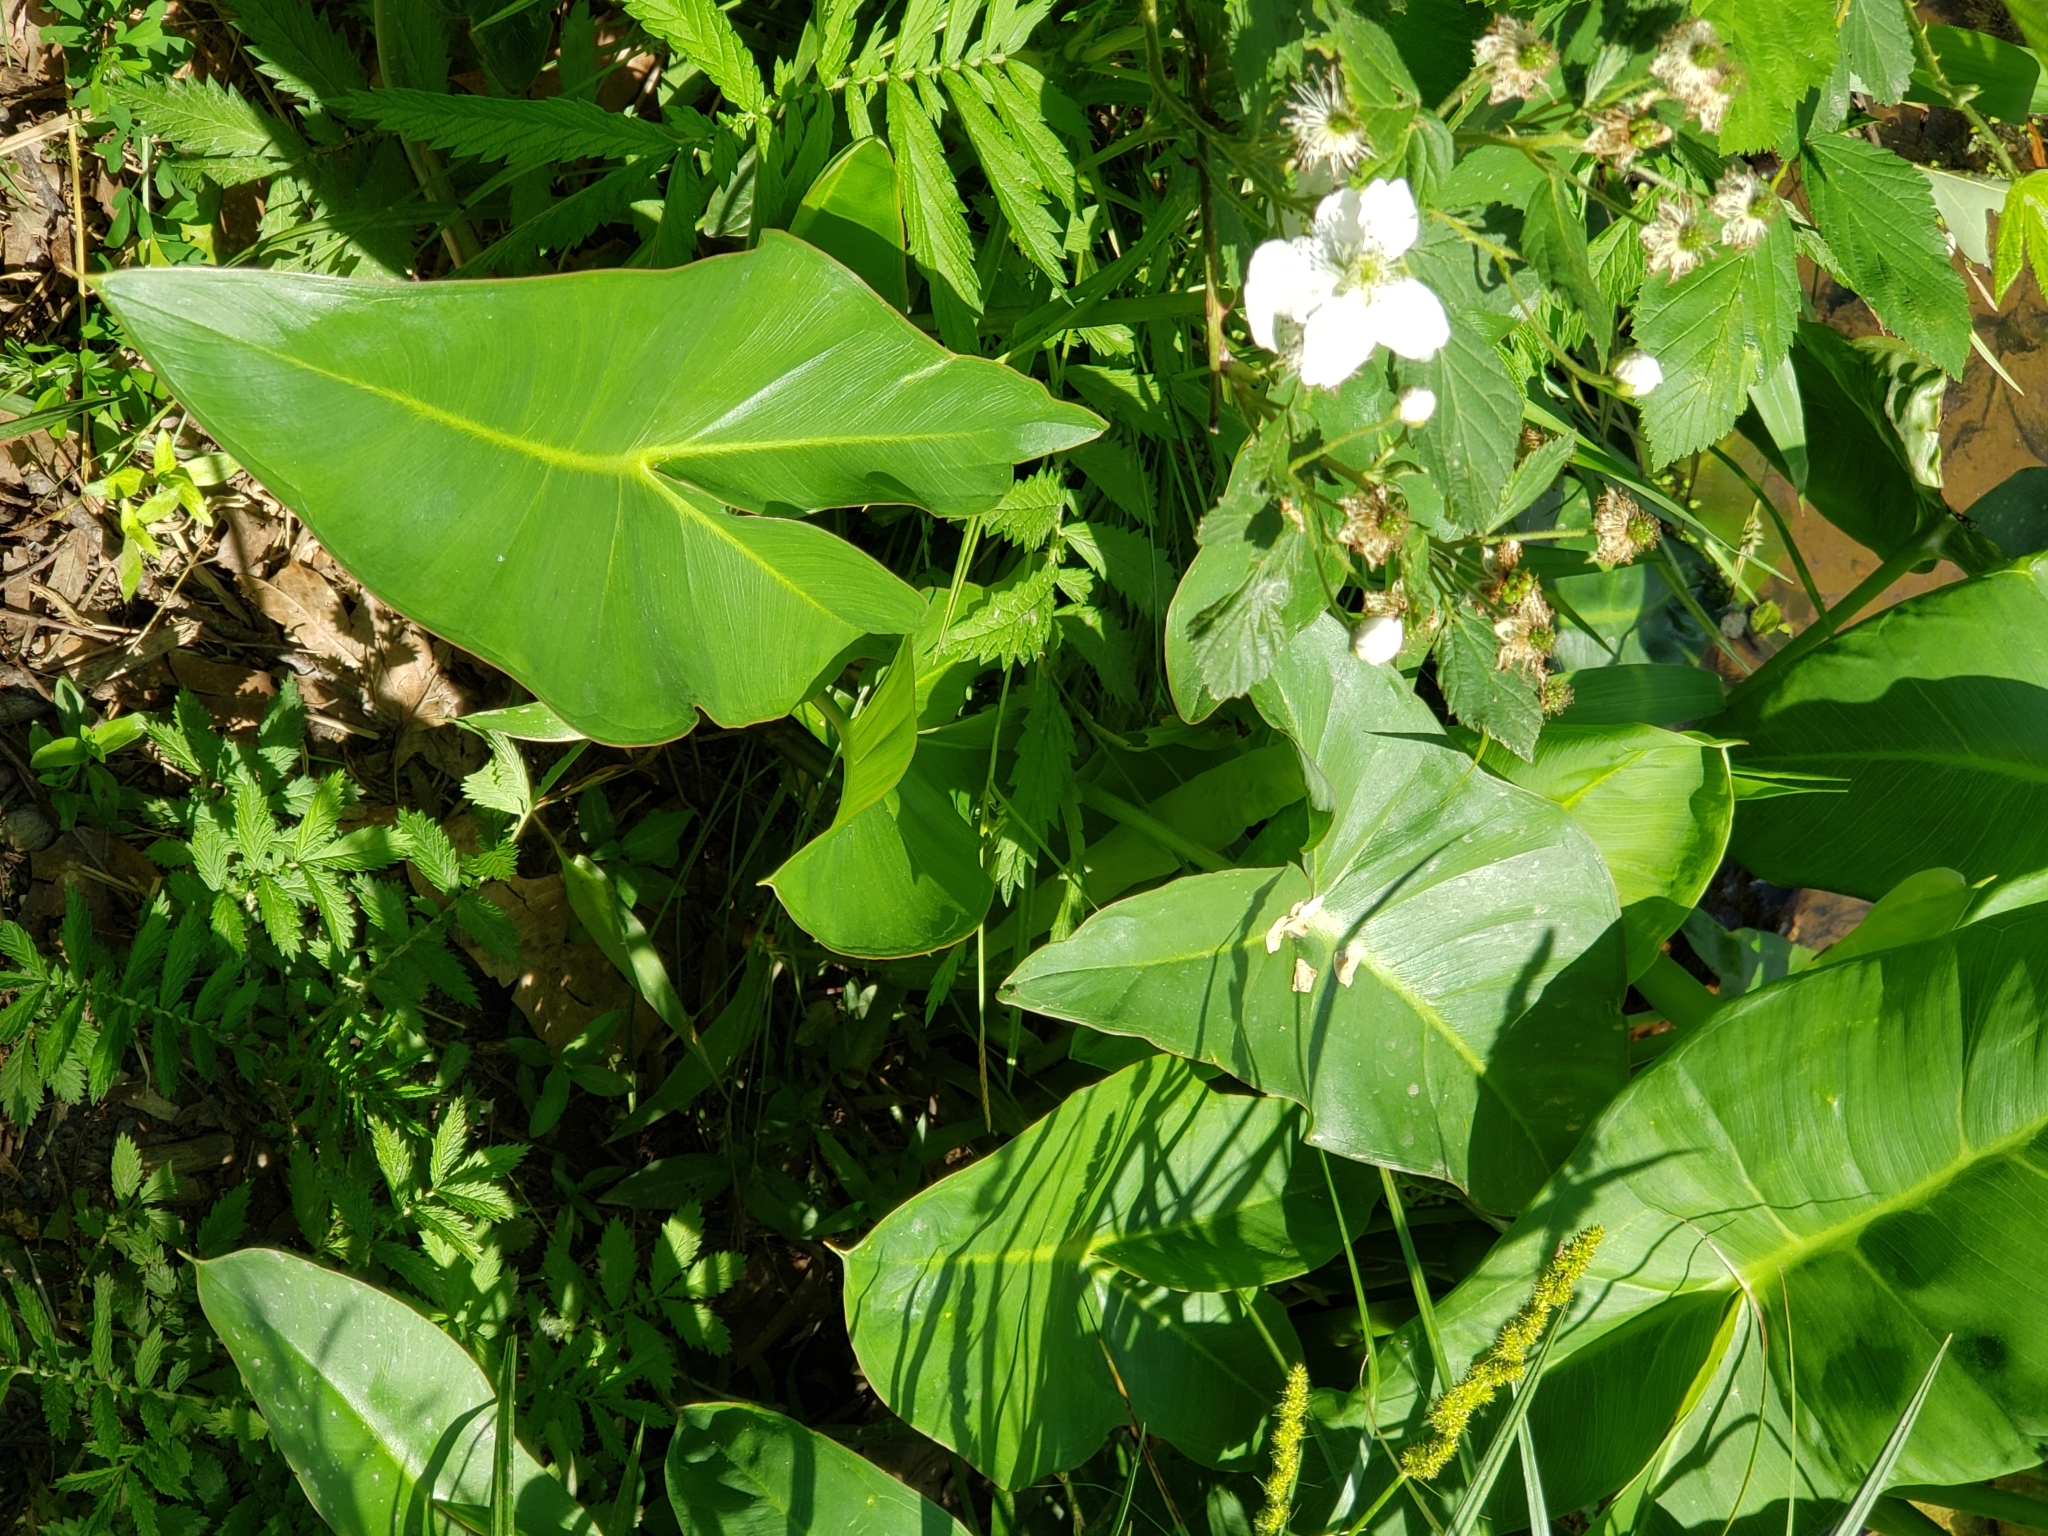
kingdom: Plantae
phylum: Tracheophyta
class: Liliopsida
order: Alismatales
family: Araceae
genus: Peltandra
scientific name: Peltandra virginica
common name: Arrow arum
